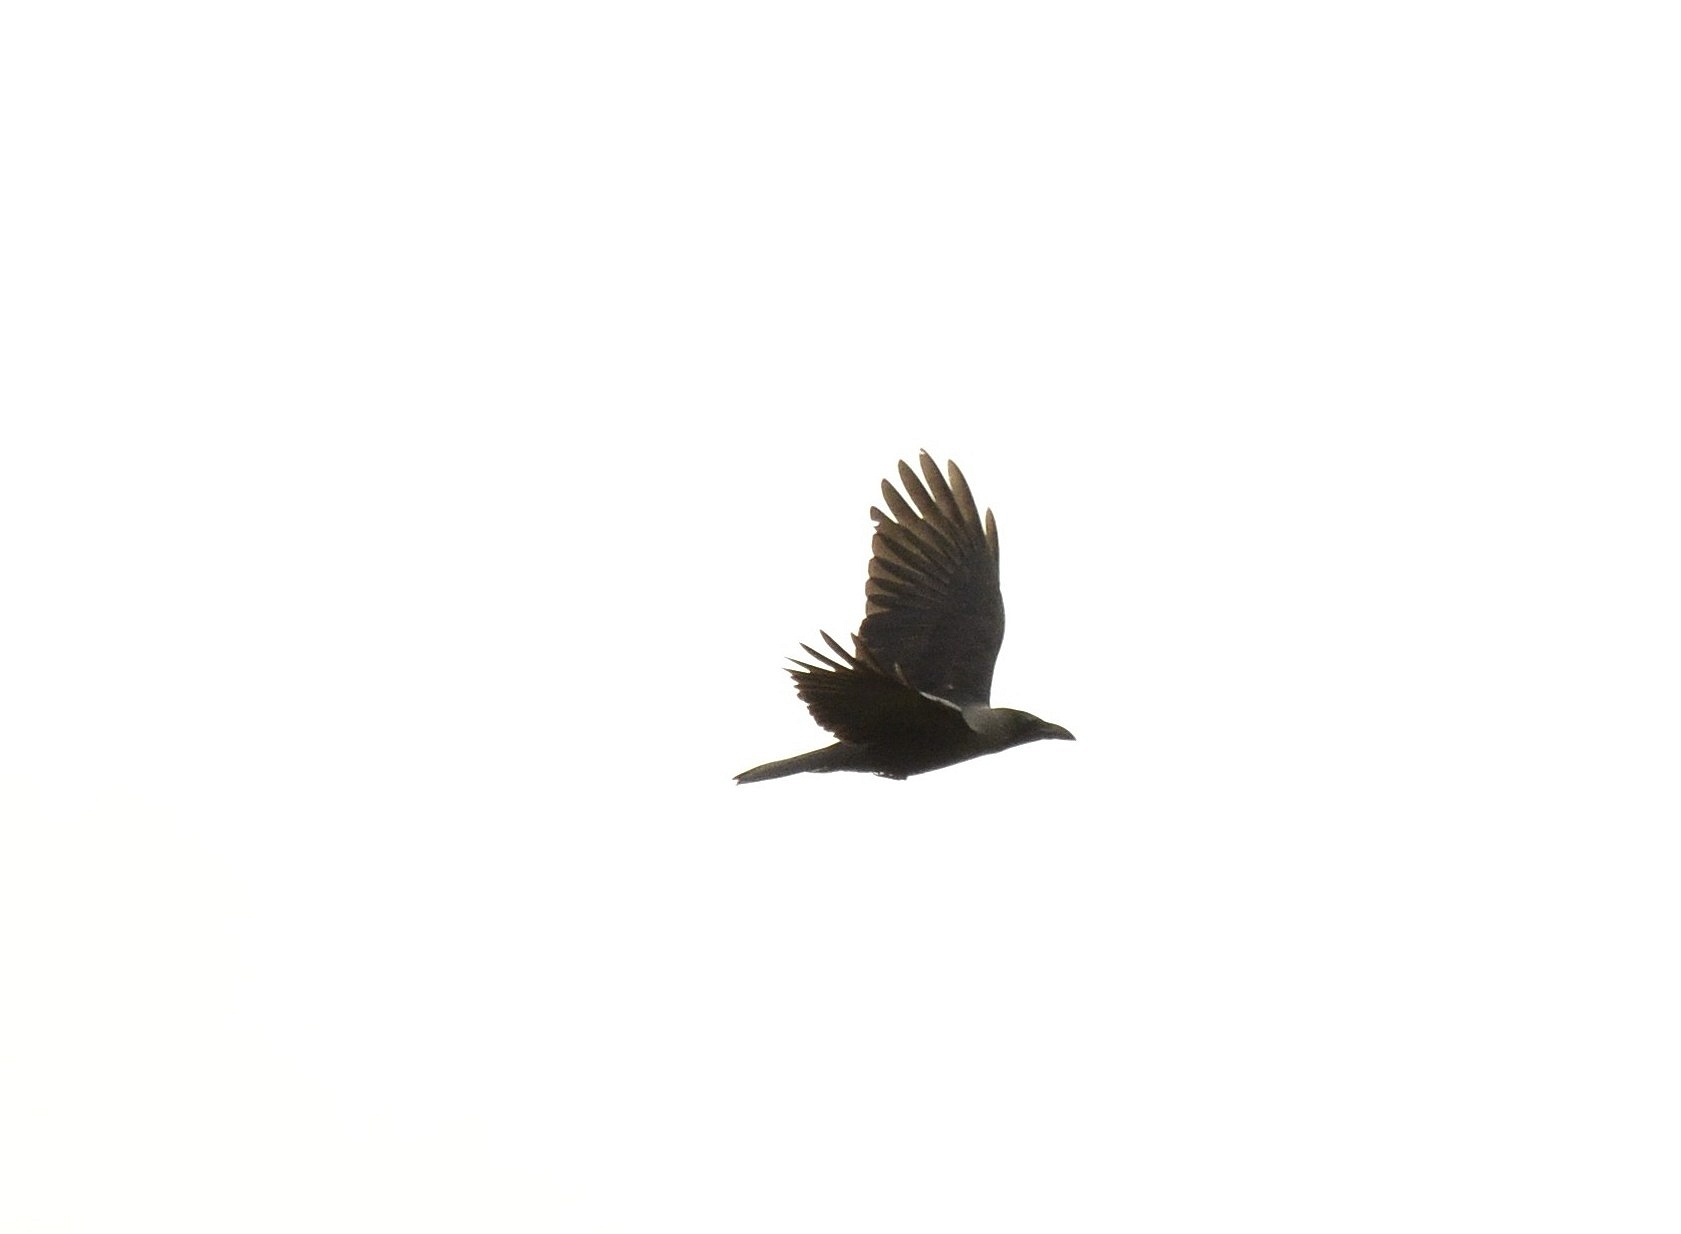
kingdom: Animalia
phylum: Chordata
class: Aves
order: Passeriformes
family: Corvidae
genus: Corvus
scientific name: Corvus splendens
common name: House crow
